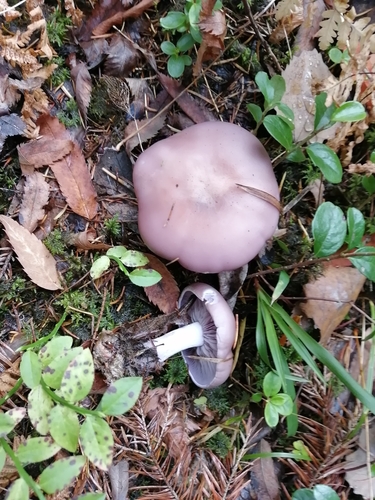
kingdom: Fungi
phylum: Basidiomycota
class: Agaricomycetes
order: Agaricales
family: Tricholomataceae
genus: Lepista
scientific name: Lepista nuda
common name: Wood blewit
